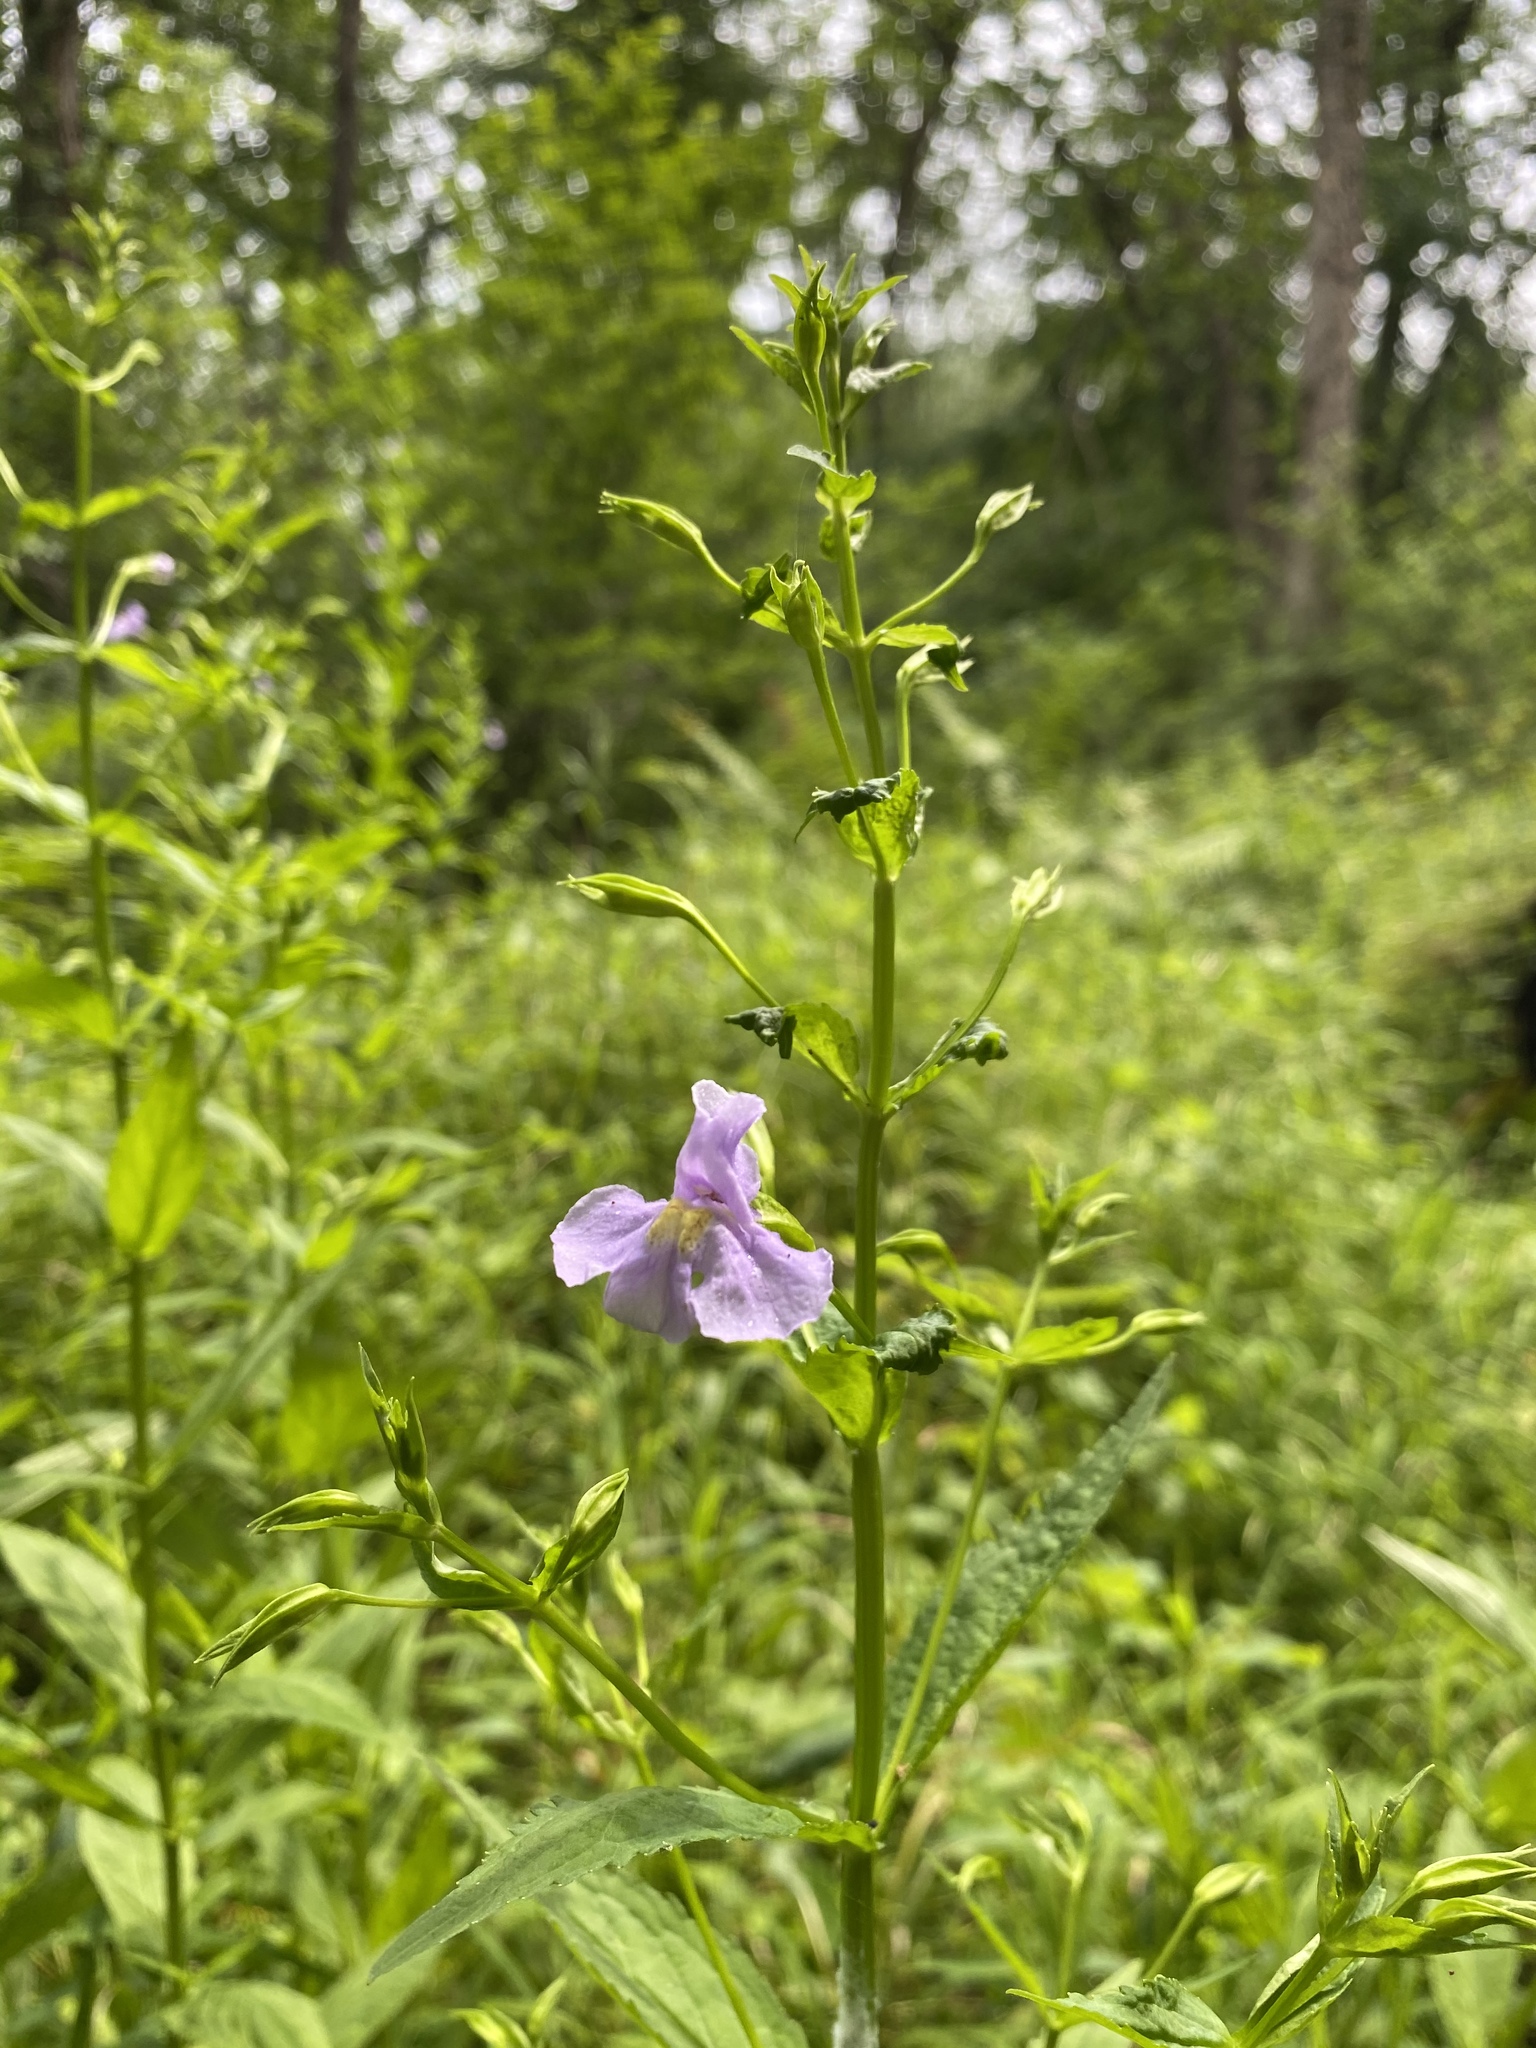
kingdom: Plantae
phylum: Tracheophyta
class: Magnoliopsida
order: Lamiales
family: Phrymaceae
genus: Mimulus
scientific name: Mimulus ringens
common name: Allegheny monkeyflower
